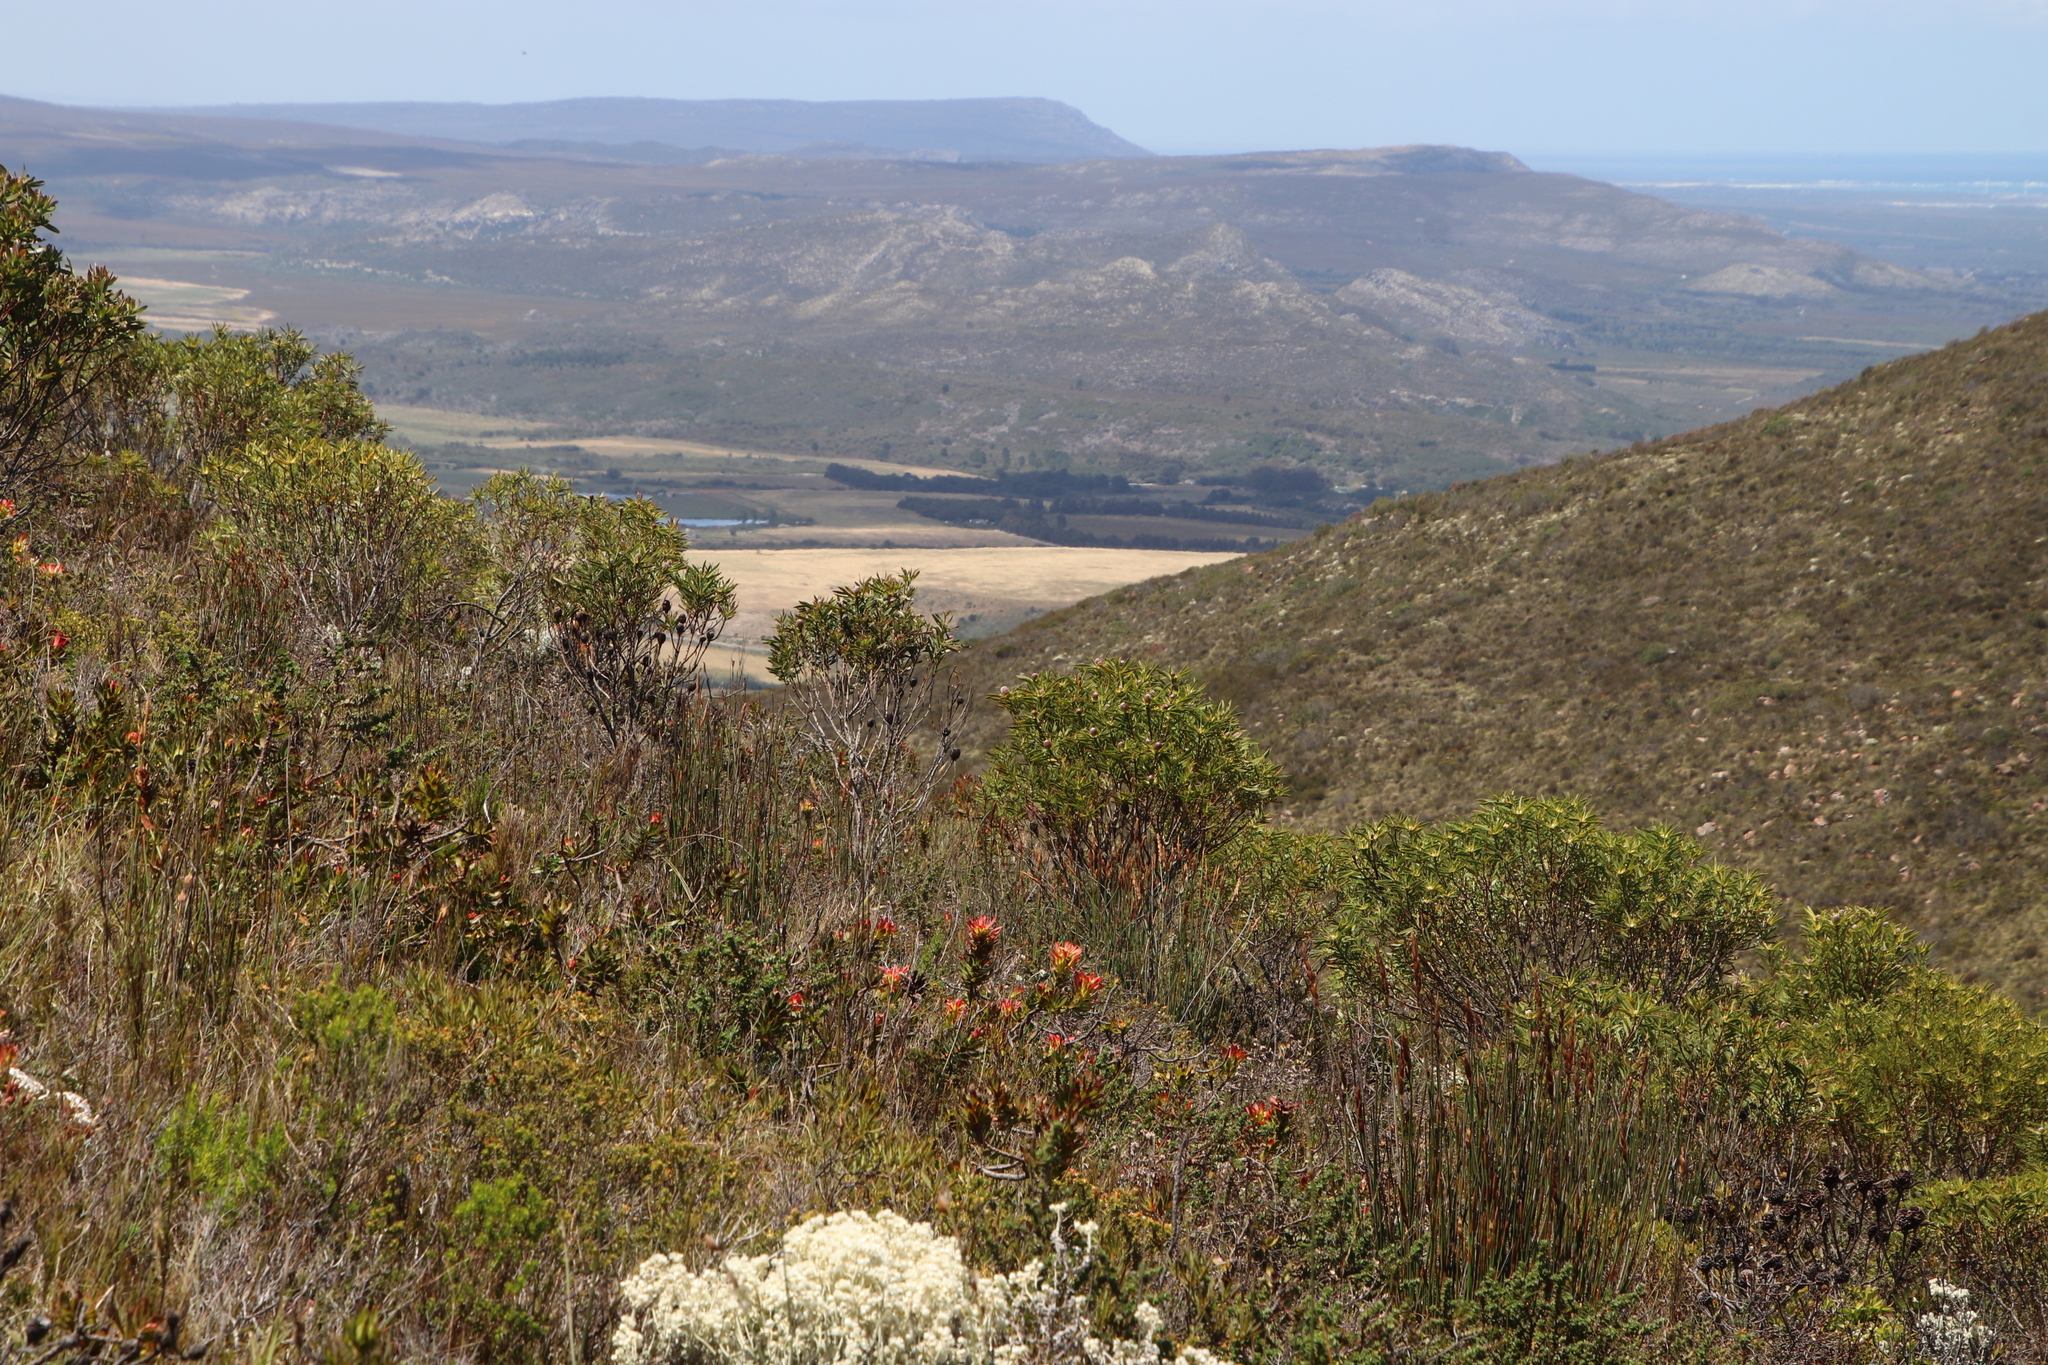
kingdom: Plantae
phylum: Tracheophyta
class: Magnoliopsida
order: Proteales
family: Proteaceae
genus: Mimetes
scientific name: Mimetes cucullatus
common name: Common pagoda
